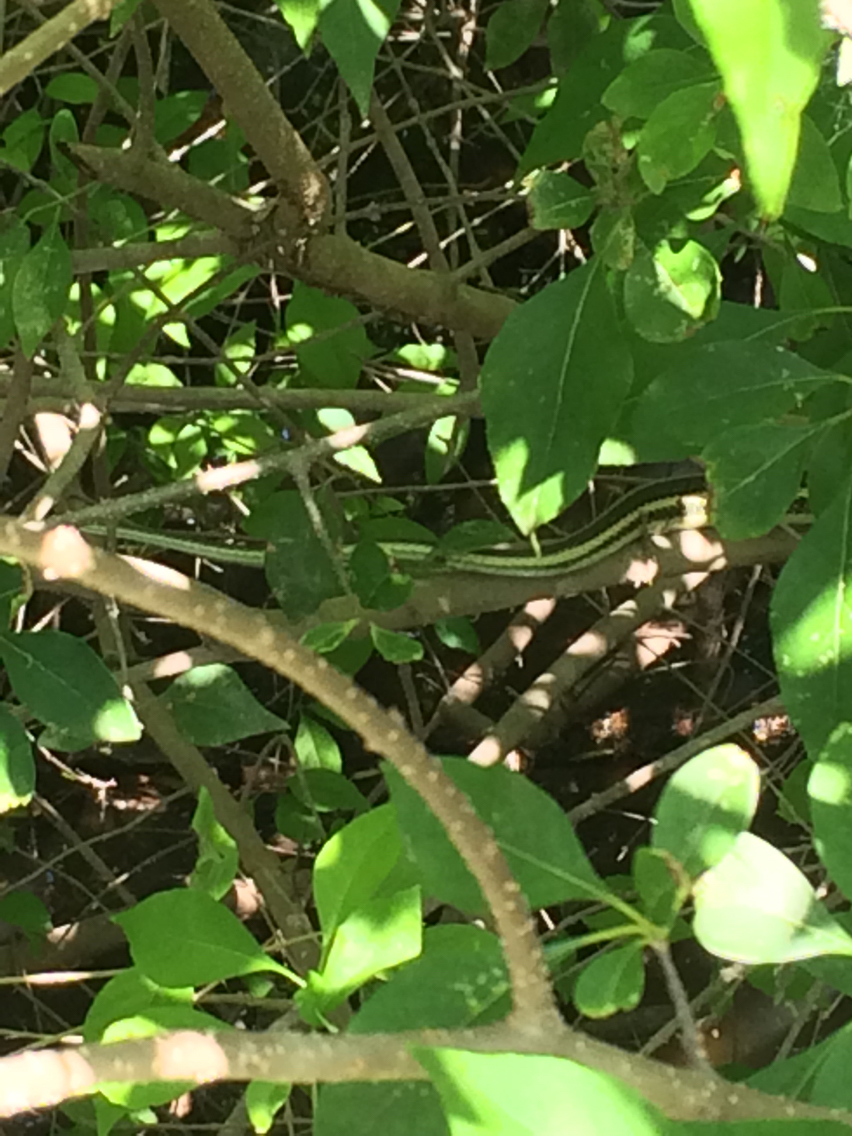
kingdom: Animalia
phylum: Chordata
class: Squamata
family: Colubridae
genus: Thamnophis
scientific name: Thamnophis proximus
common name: Western ribbon snake
